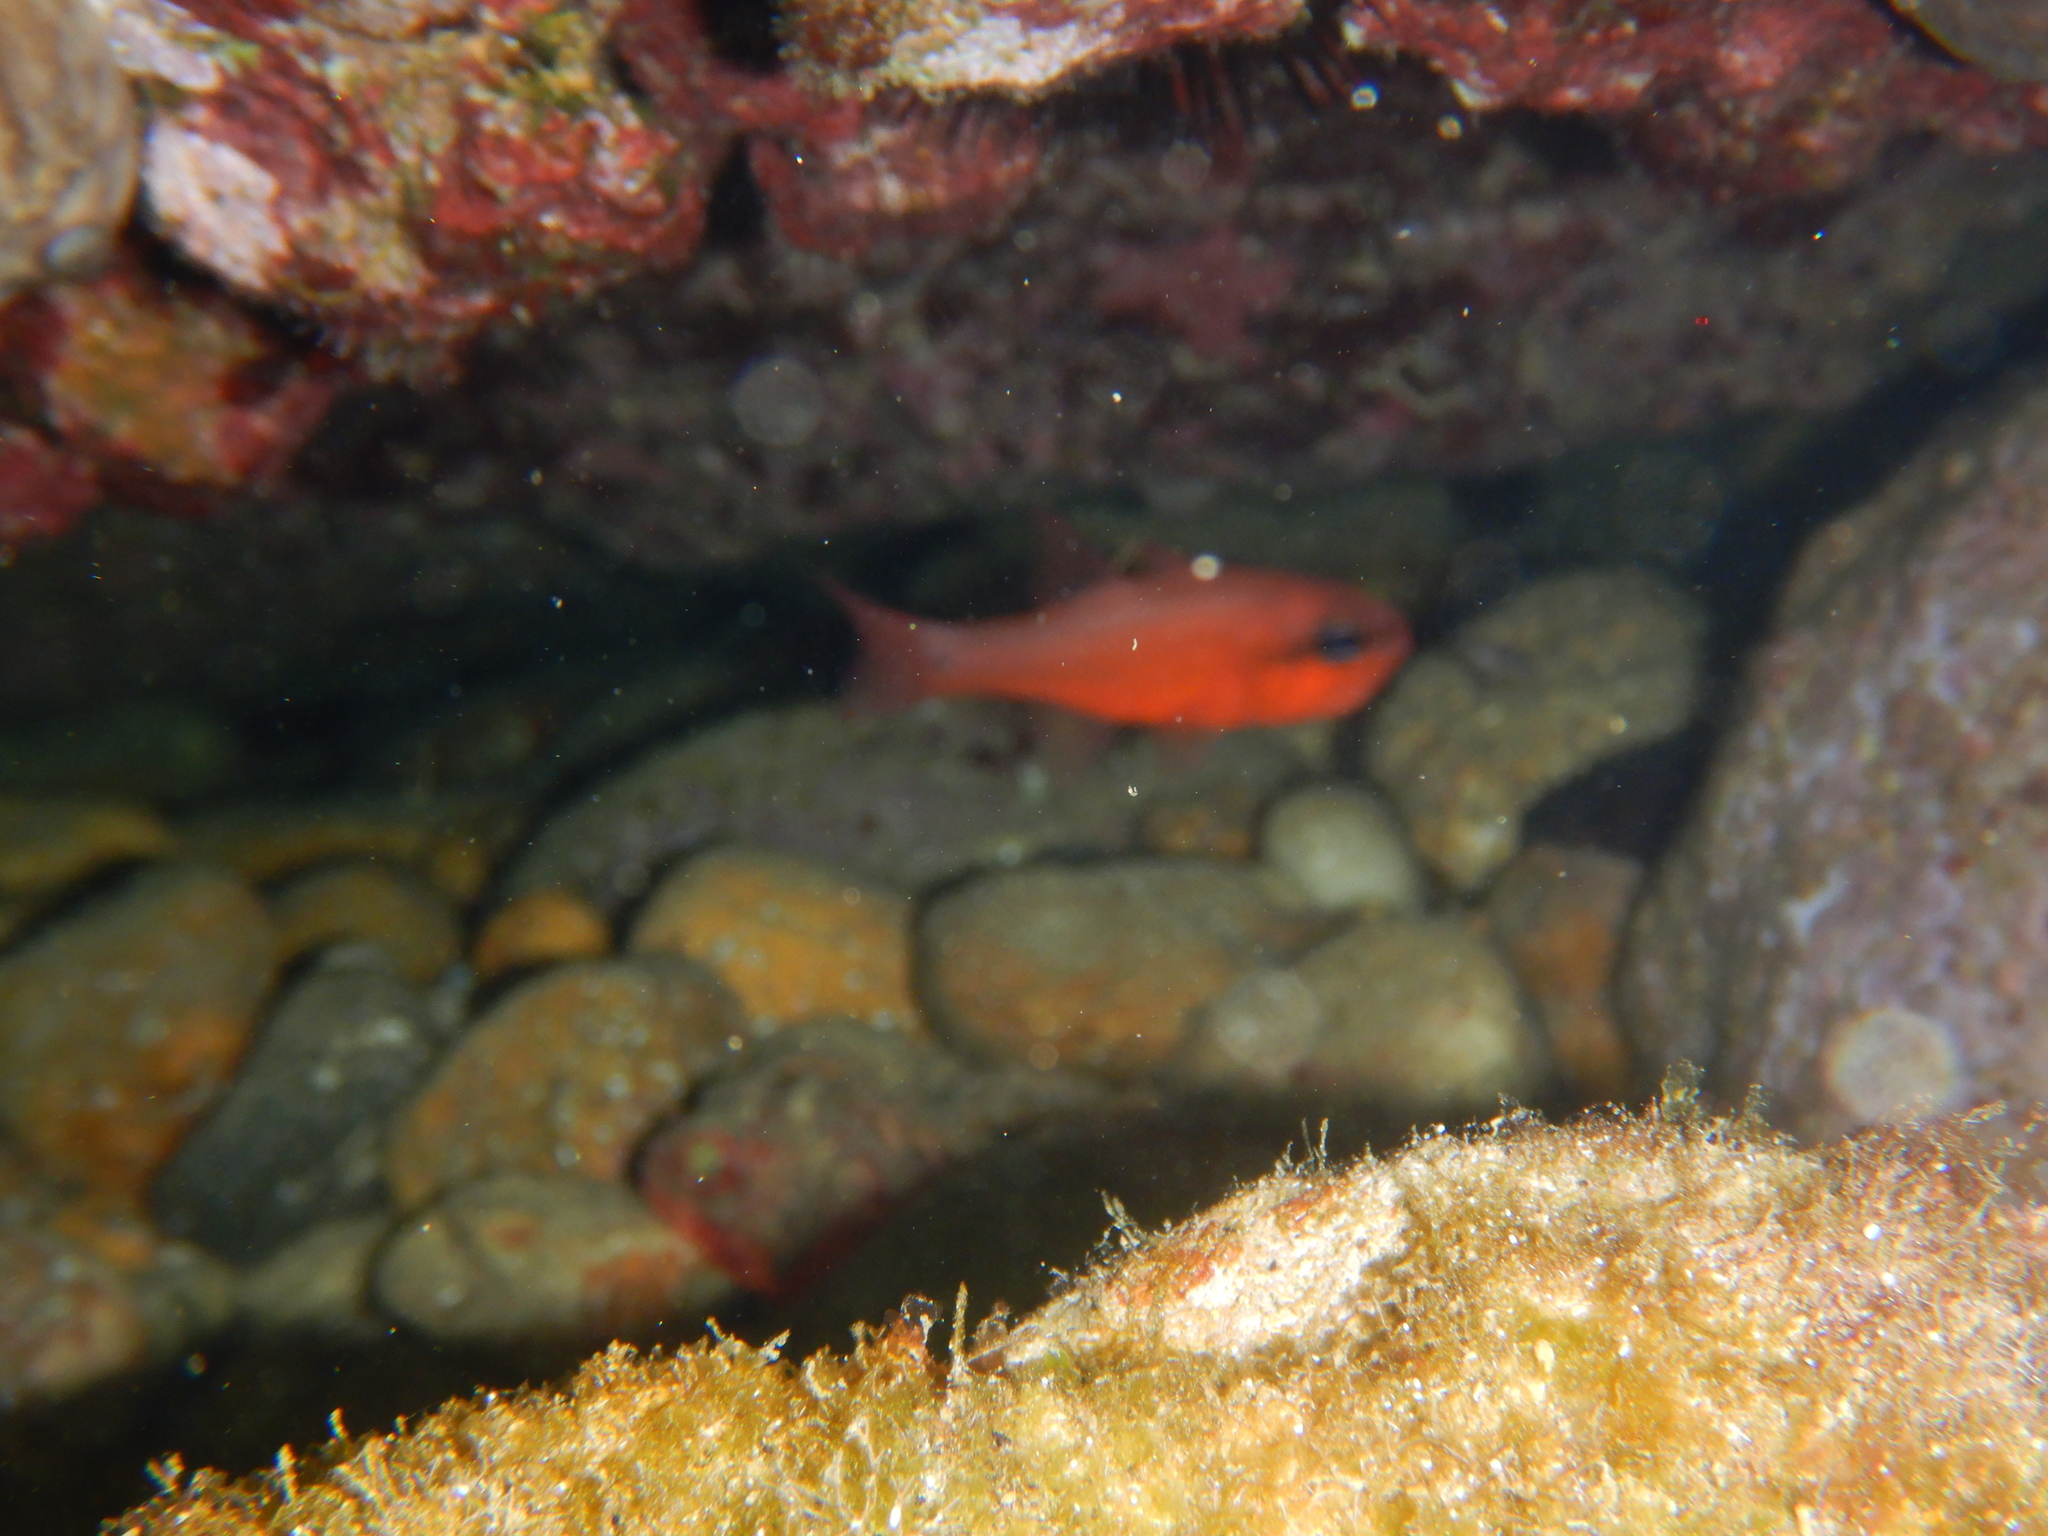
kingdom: Animalia
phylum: Chordata
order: Perciformes
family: Apogonidae
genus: Apogon
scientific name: Apogon imberbis
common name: Cardinal fish
